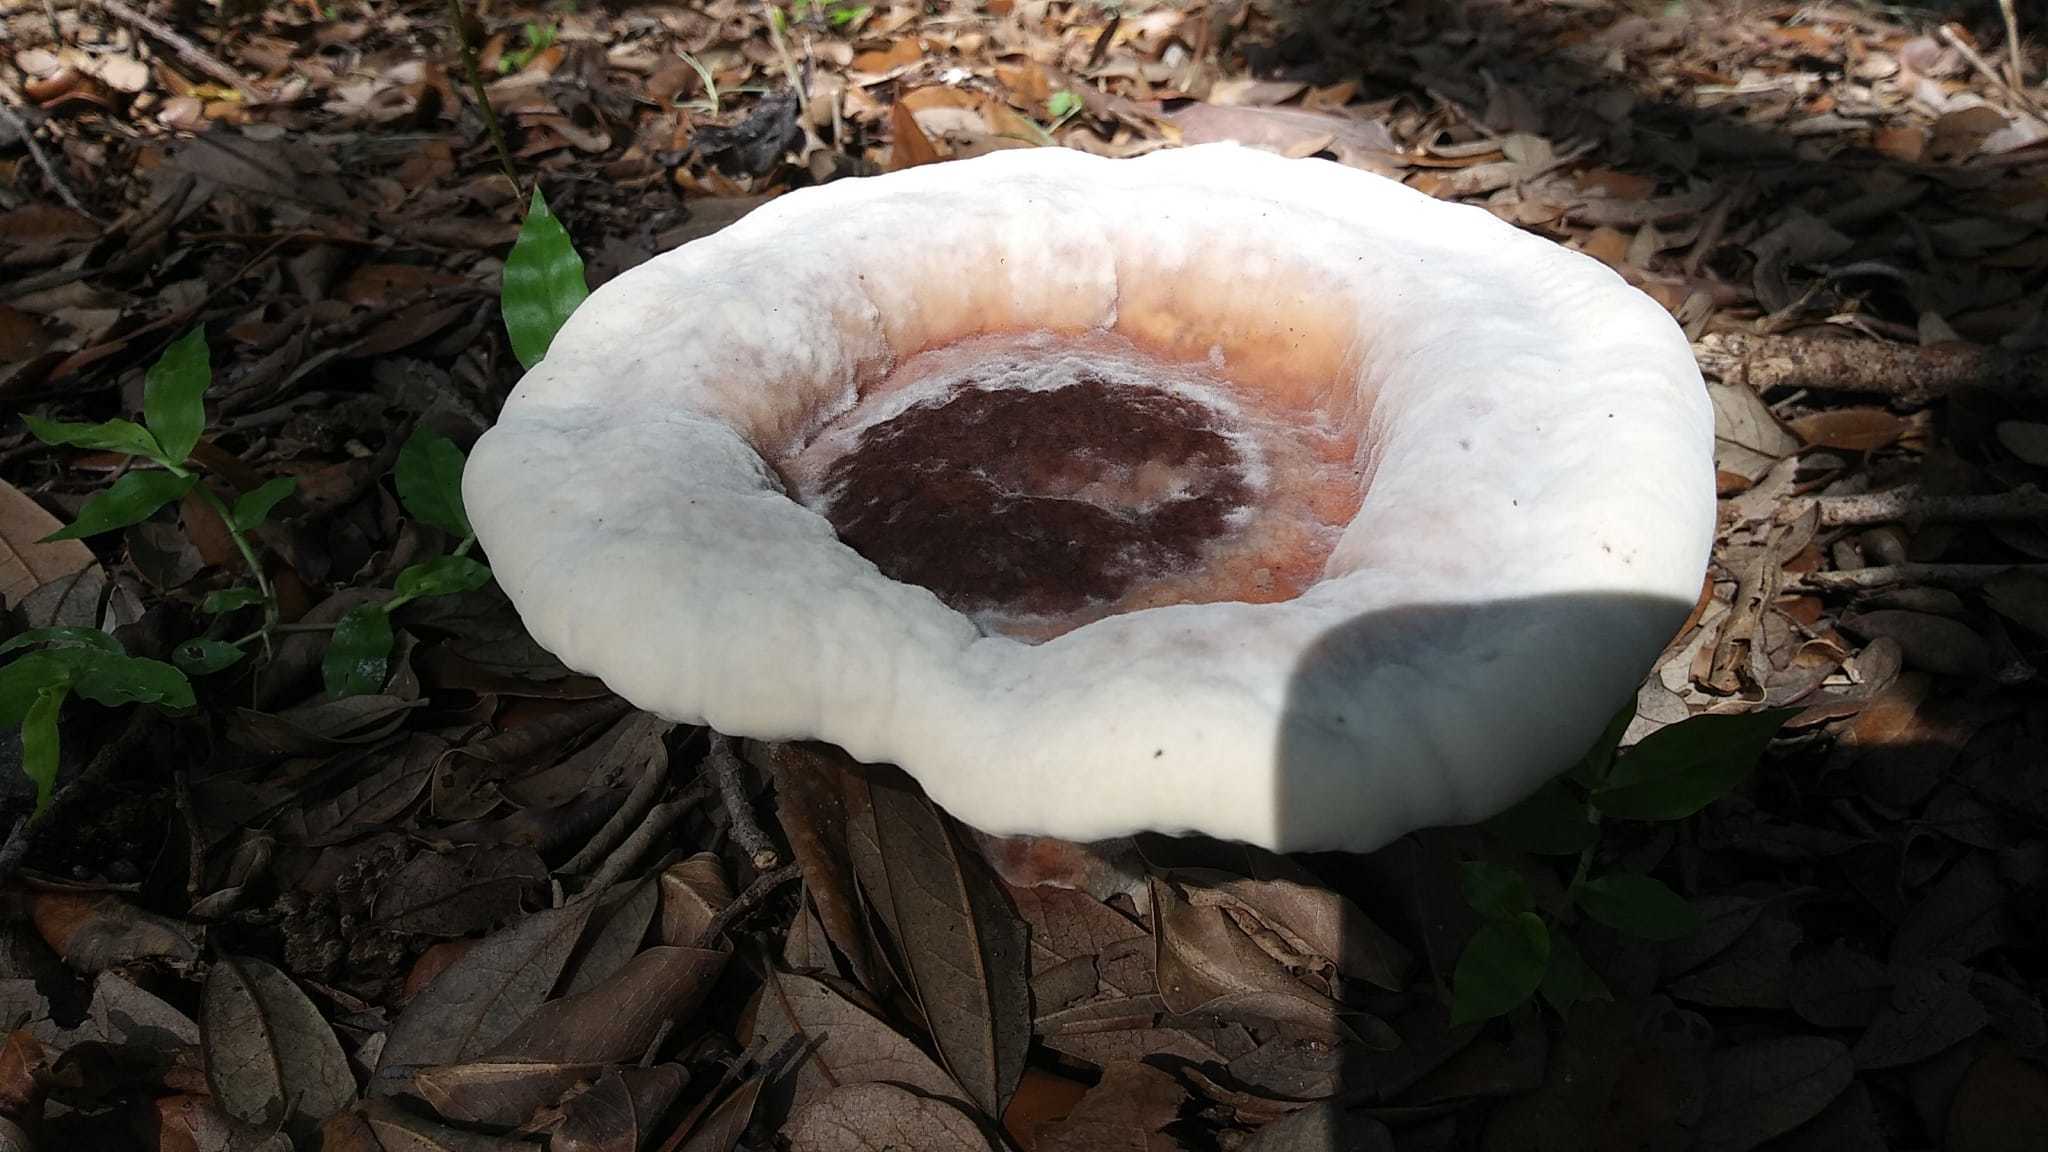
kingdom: Fungi
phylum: Basidiomycota
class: Agaricomycetes
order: Polyporales
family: Laetiporaceae
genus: Berkcurtia
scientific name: Berkcurtia persicina
